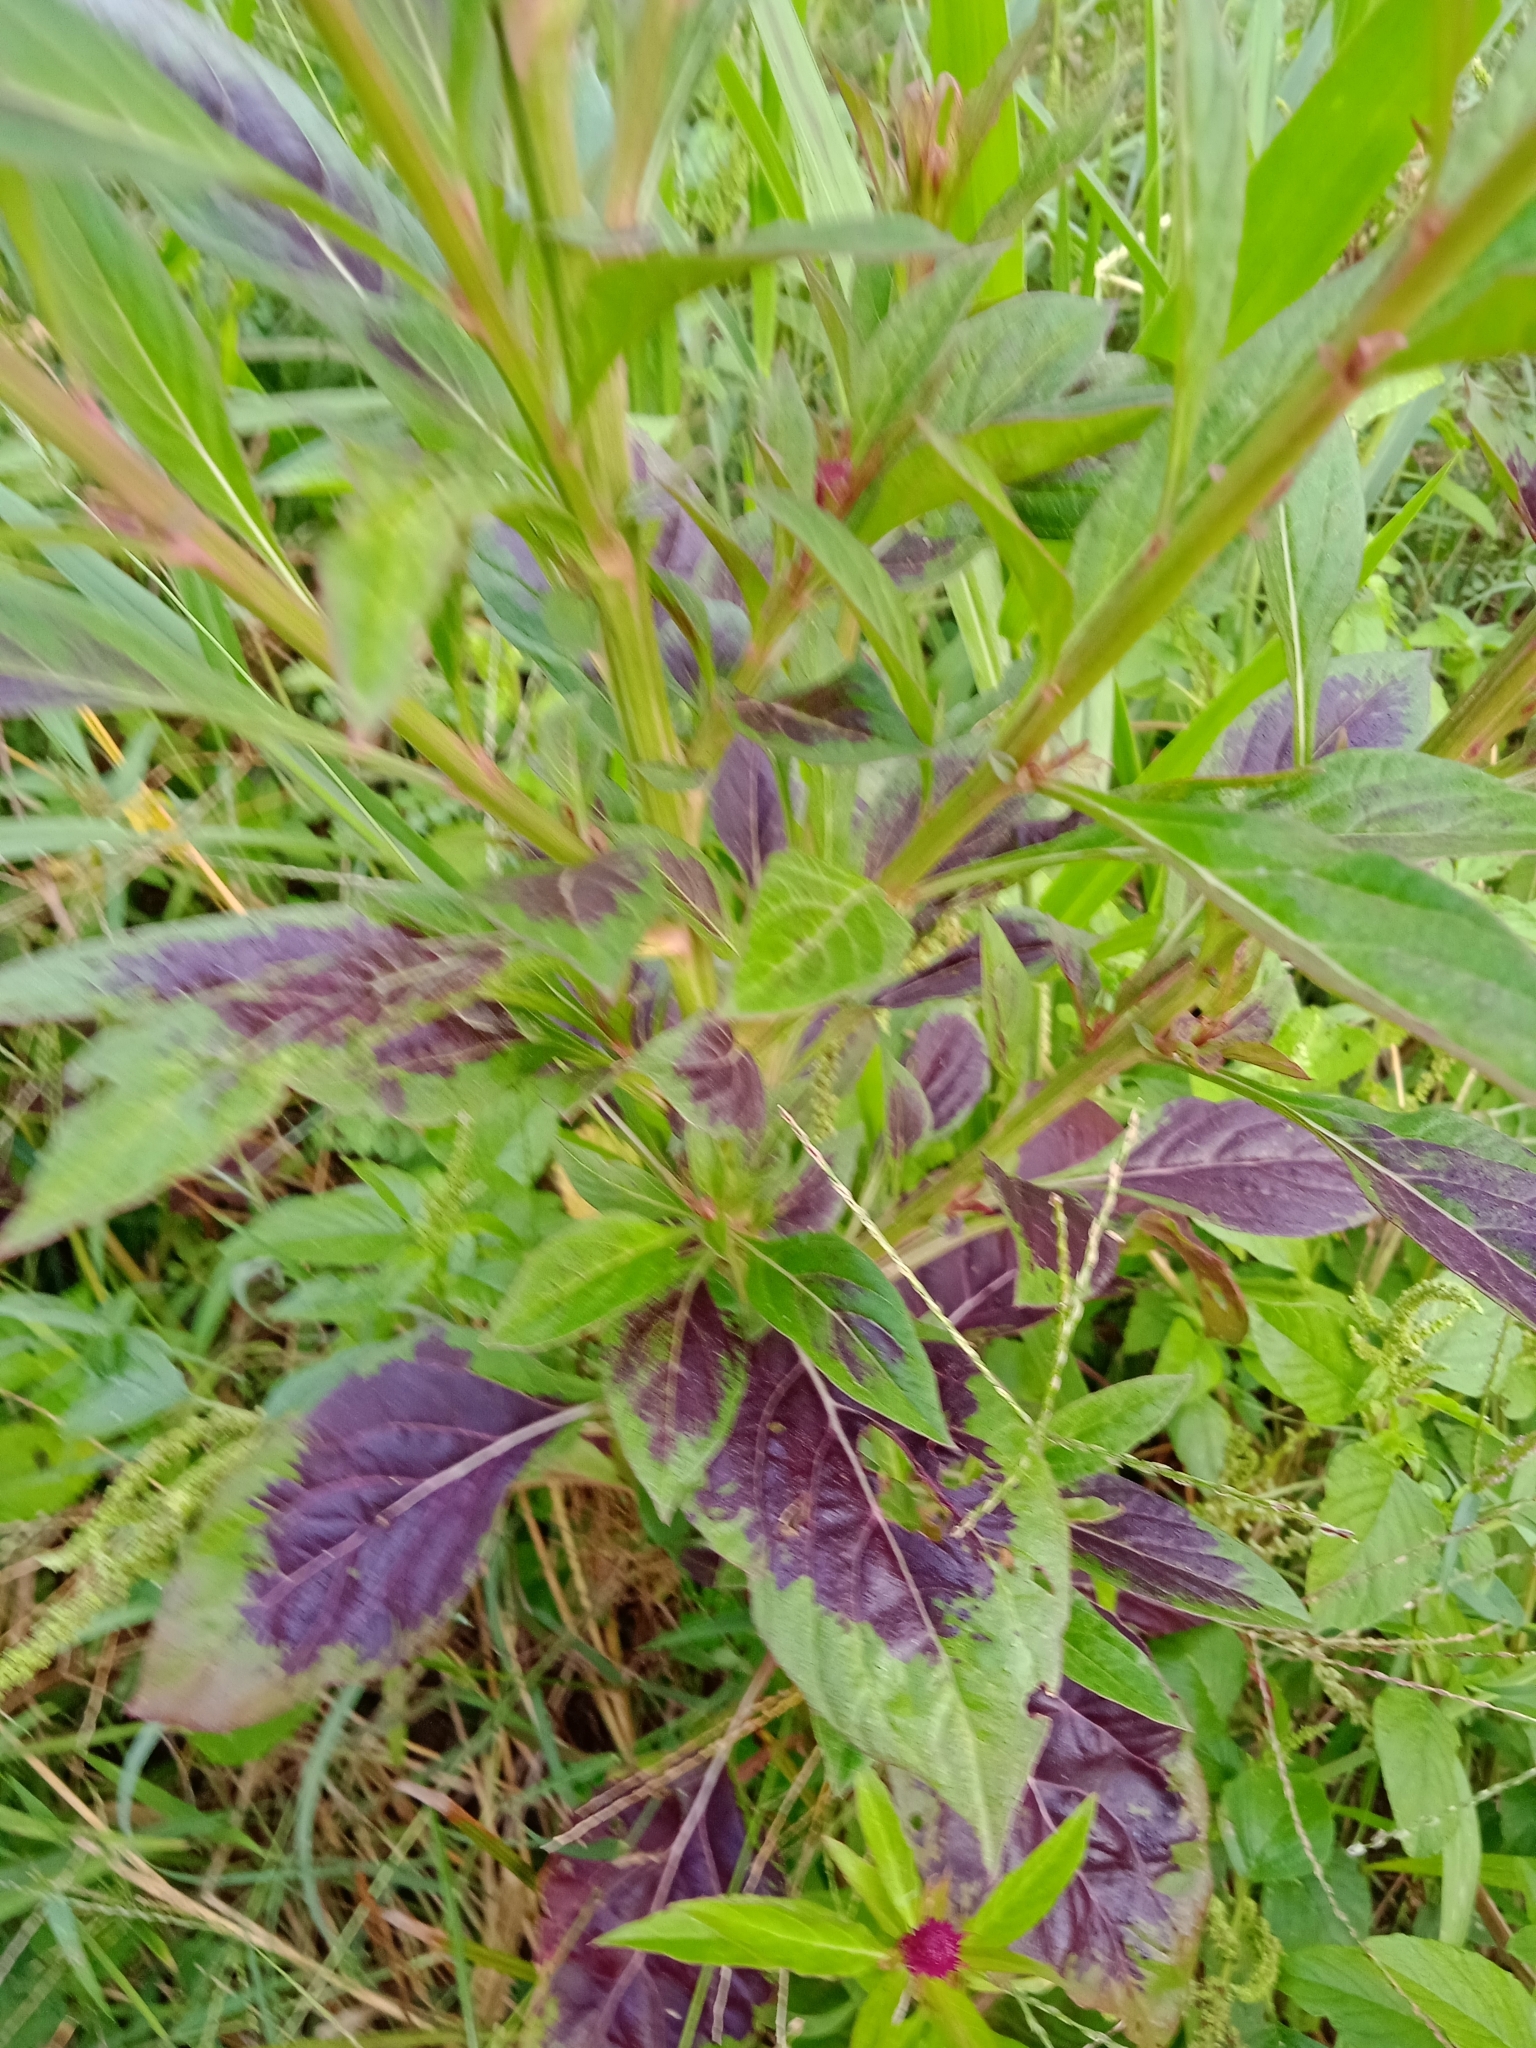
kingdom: Plantae
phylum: Tracheophyta
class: Magnoliopsida
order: Caryophyllales
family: Amaranthaceae
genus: Celosia
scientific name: Celosia argentea
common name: Feather cockscomb
